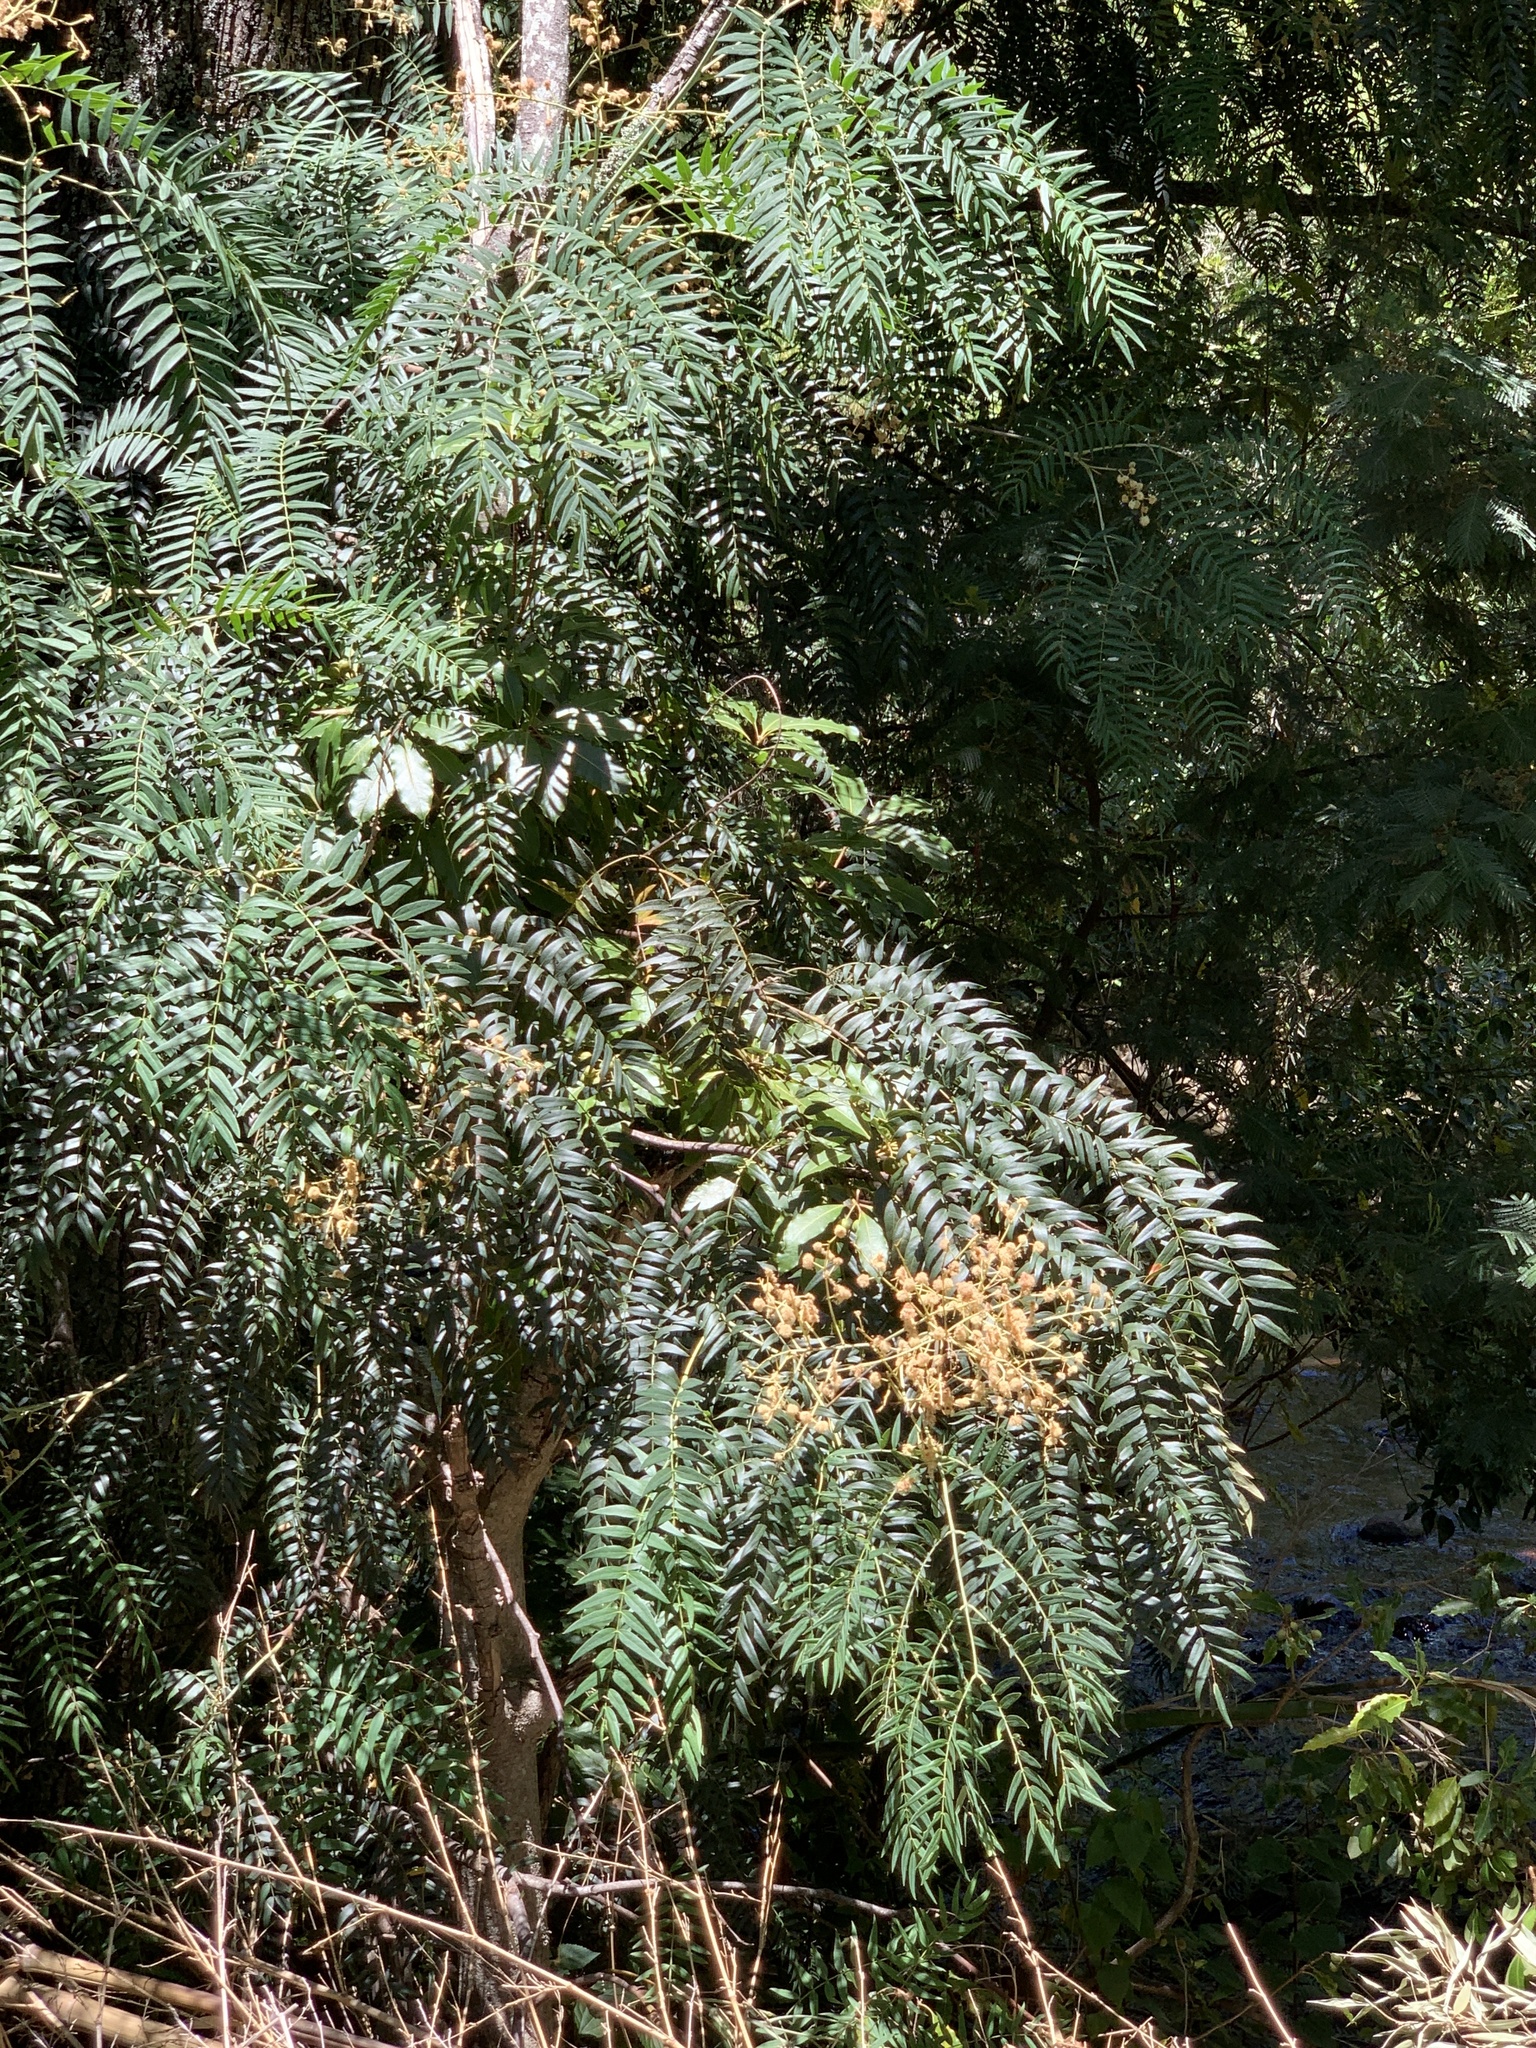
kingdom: Plantae
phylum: Tracheophyta
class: Magnoliopsida
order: Fabales
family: Fabaceae
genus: Acacia
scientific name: Acacia elata
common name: Cedar wattle
